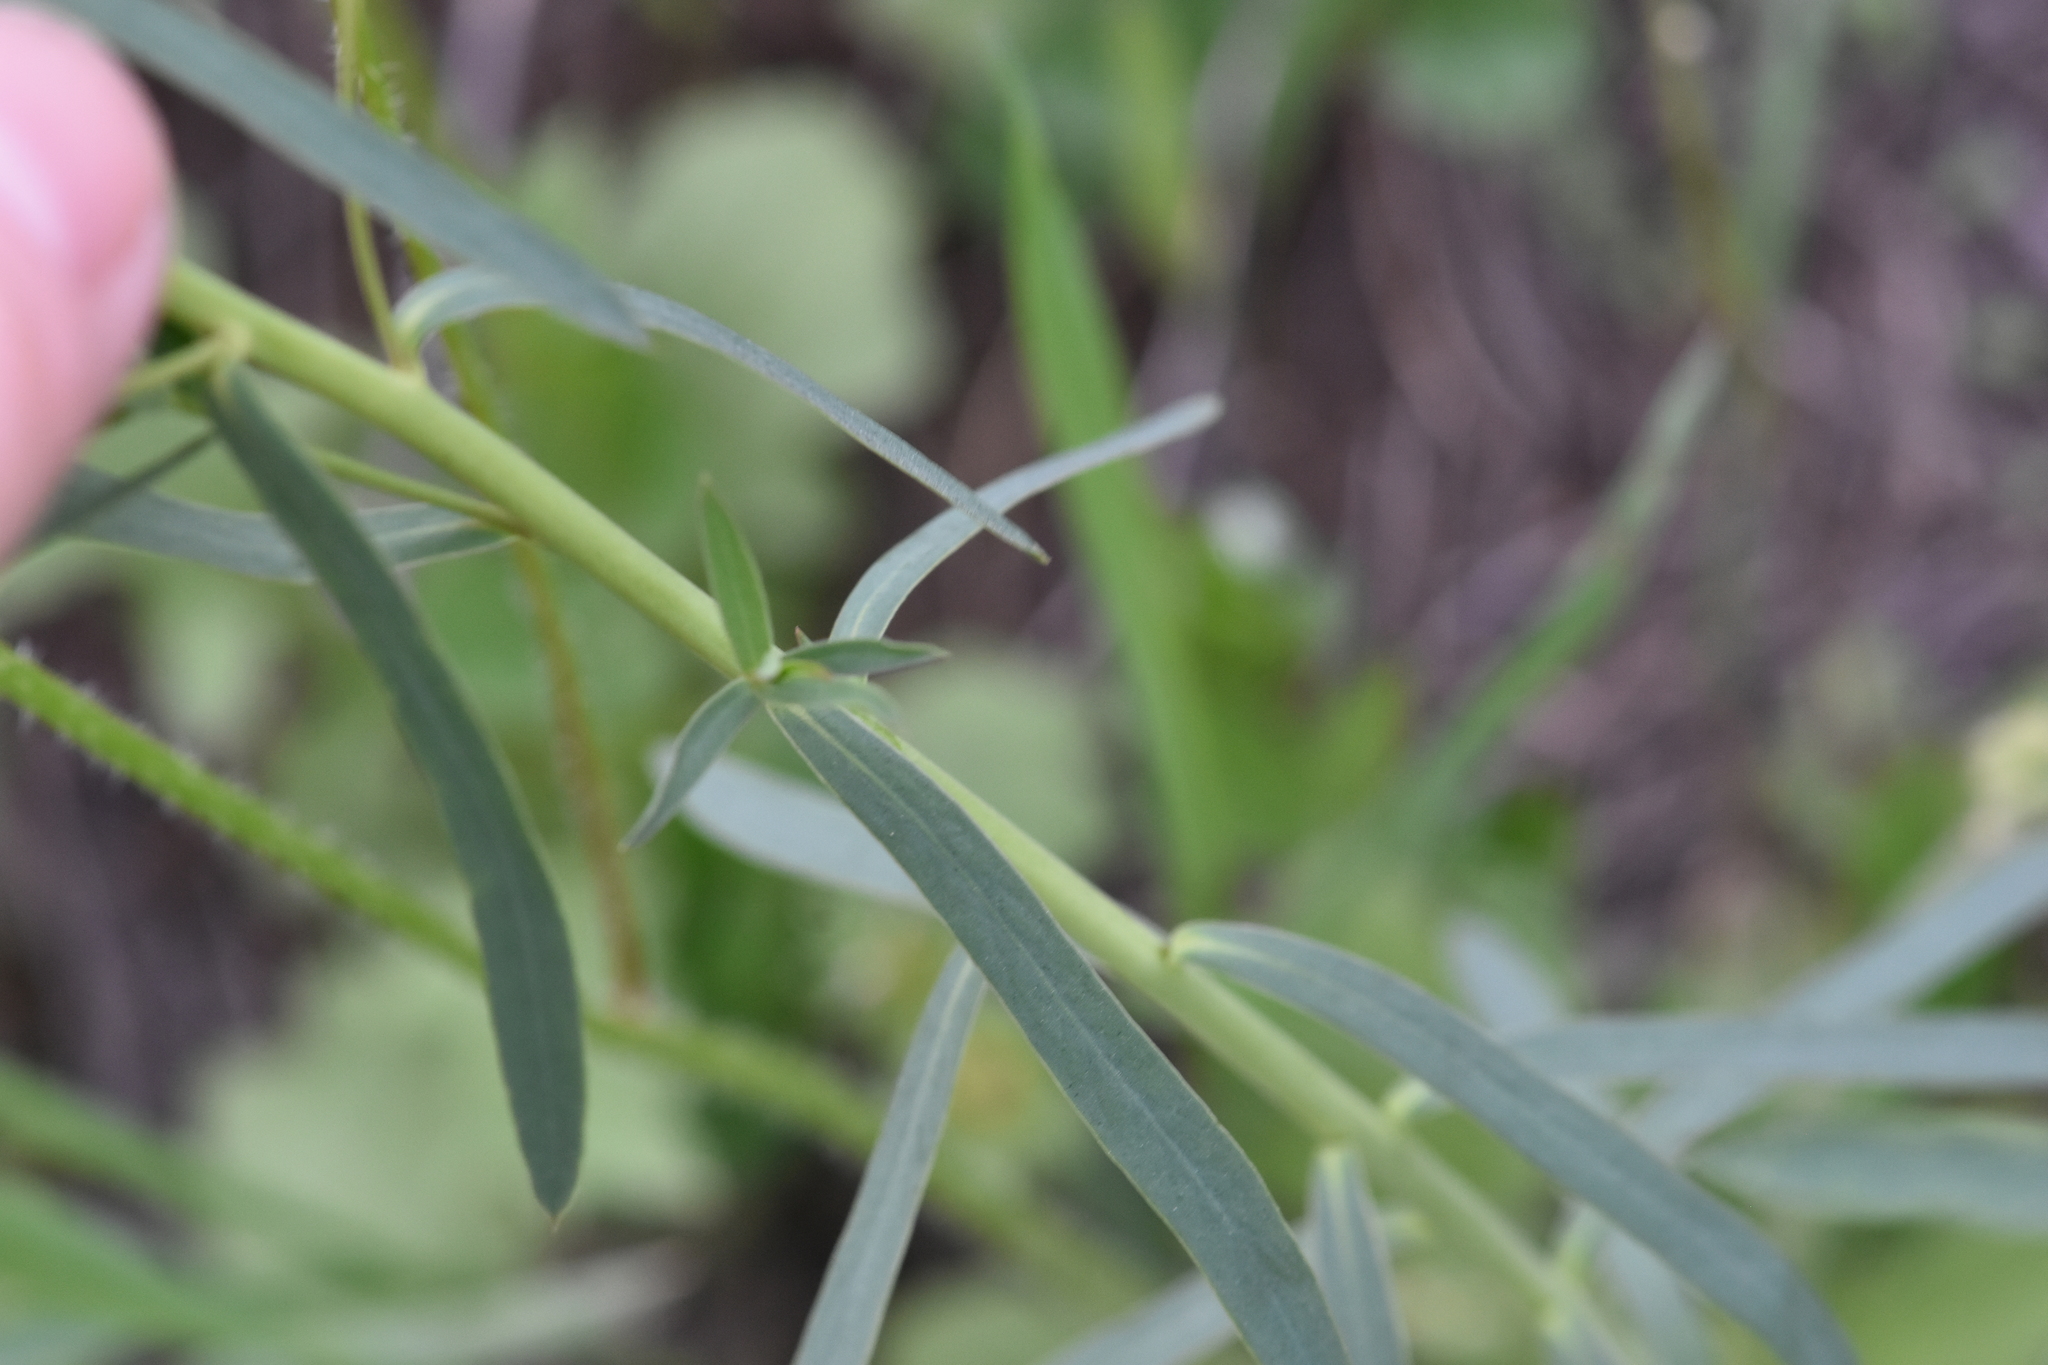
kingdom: Plantae
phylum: Tracheophyta
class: Magnoliopsida
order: Malpighiales
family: Euphorbiaceae
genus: Euphorbia
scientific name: Euphorbia virgata
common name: Leafy spurge
